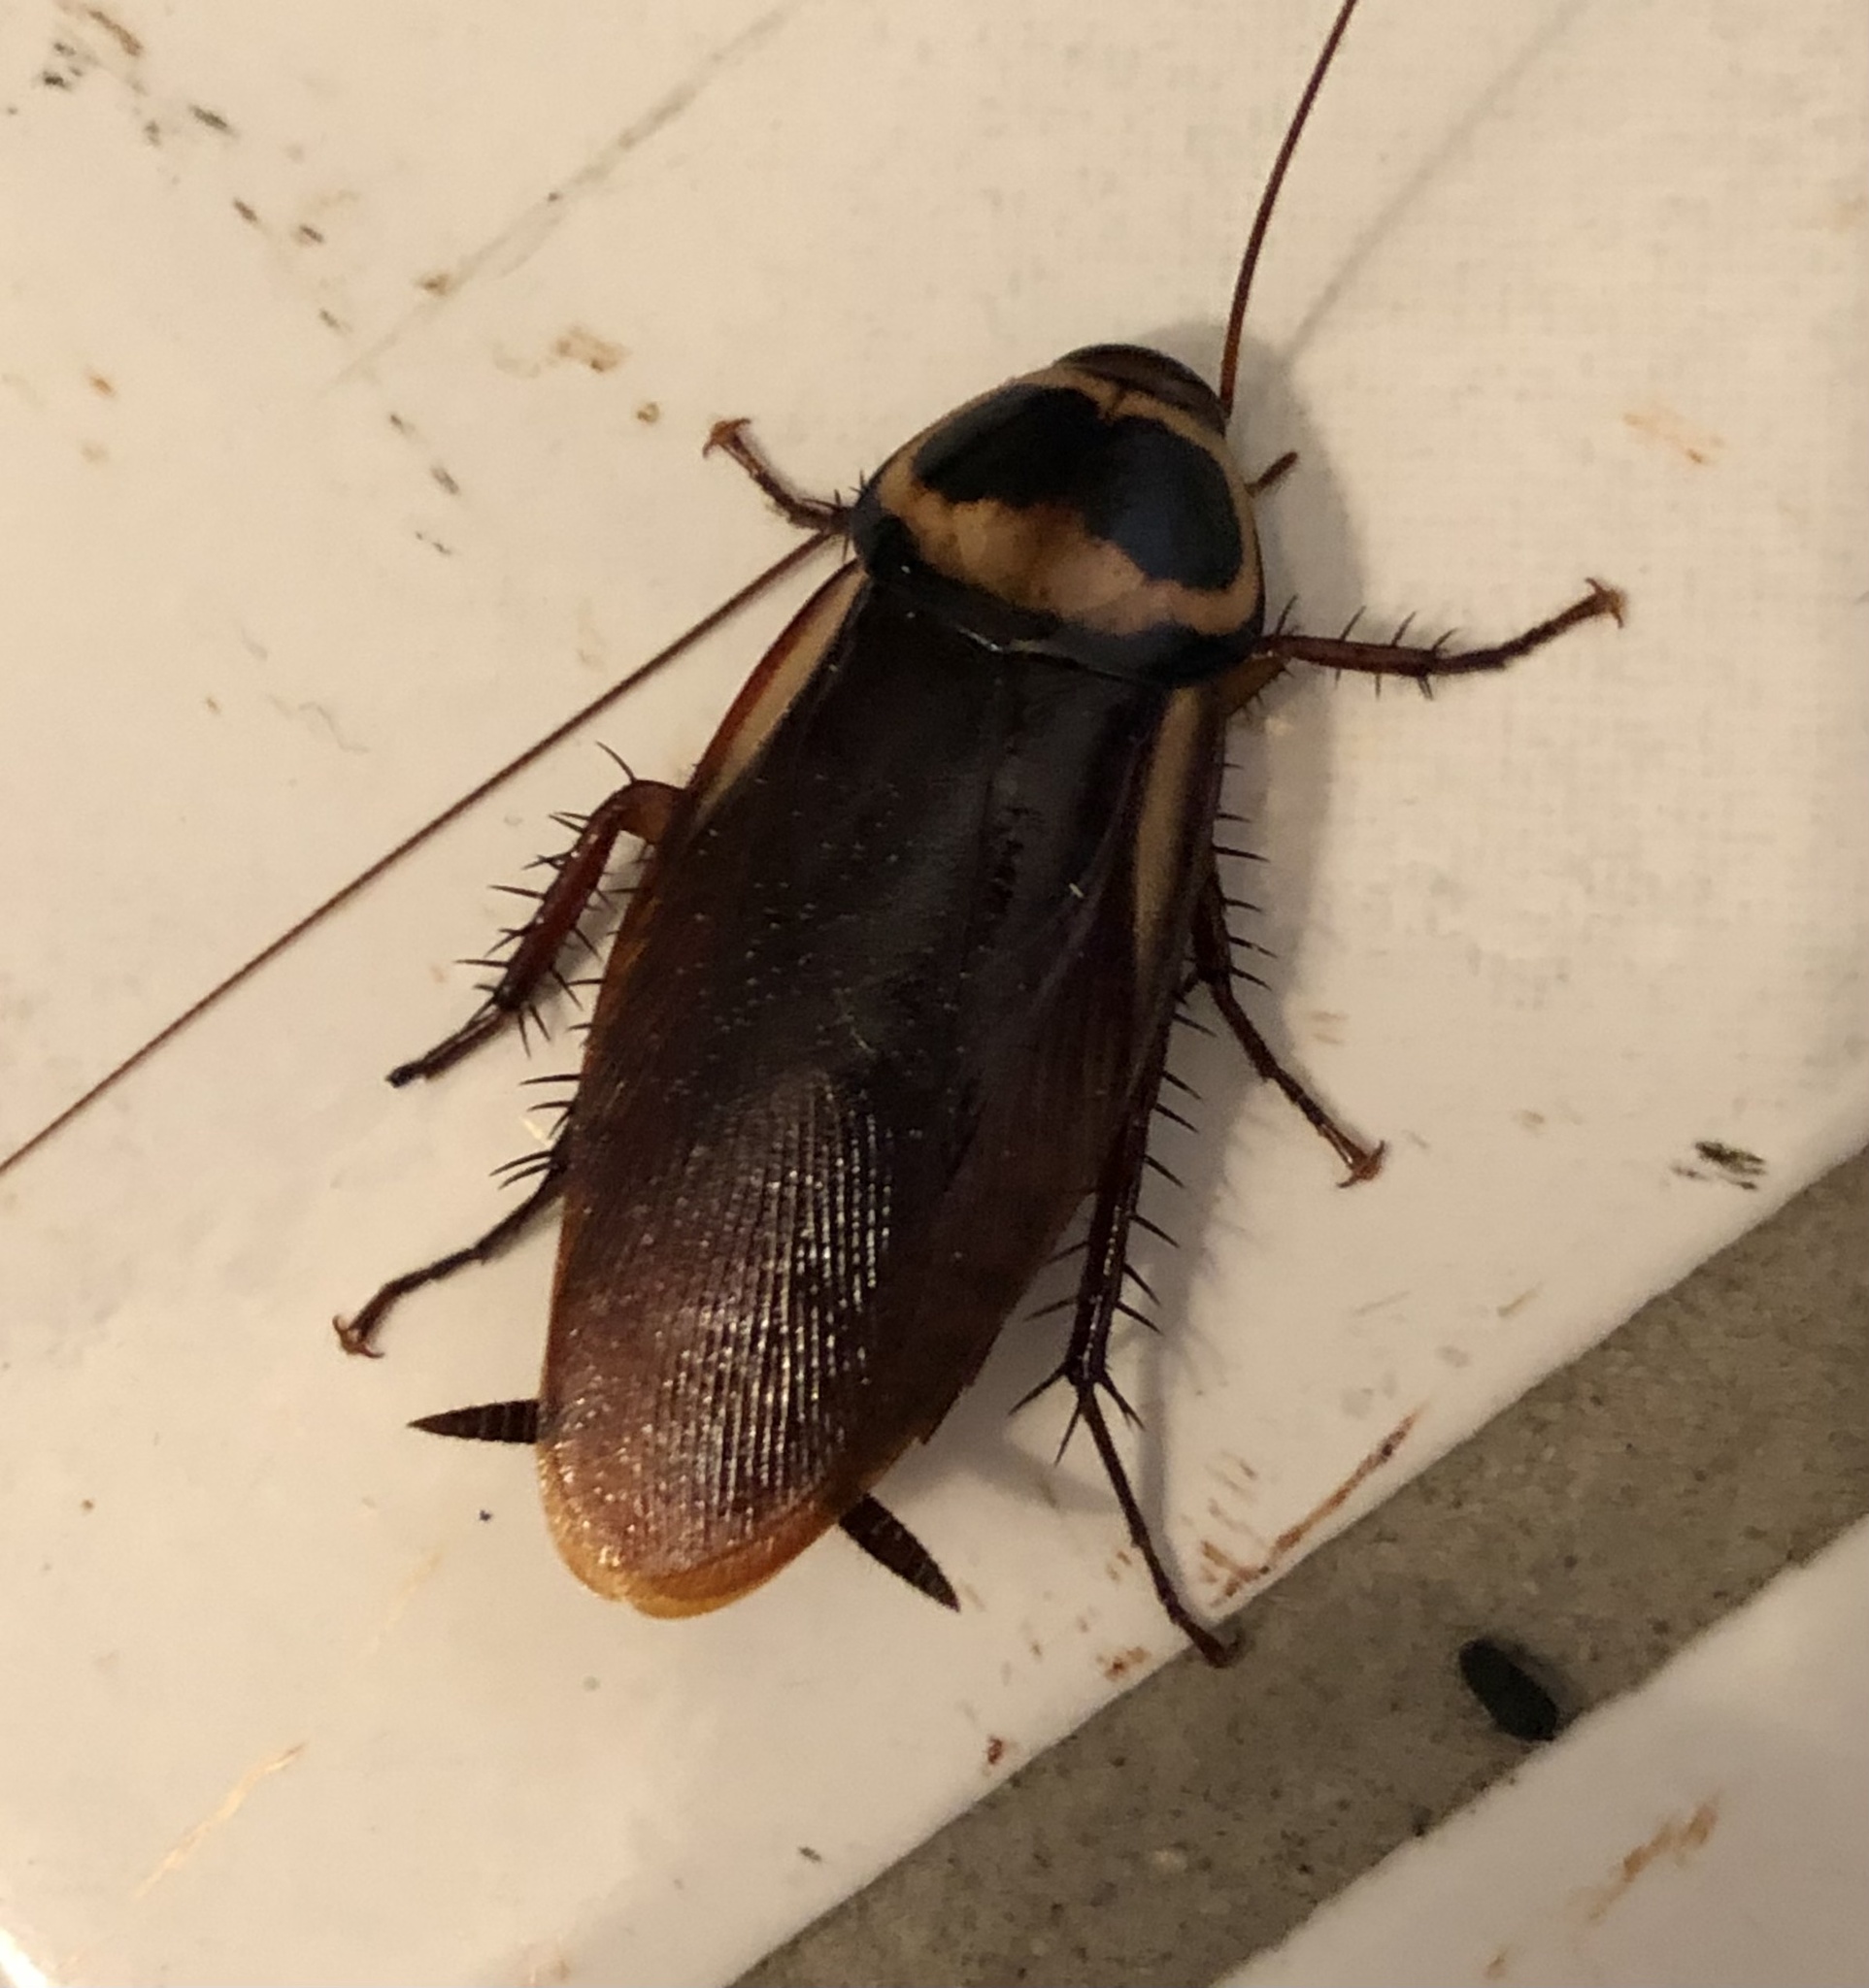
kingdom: Animalia
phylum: Arthropoda
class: Insecta
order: Blattodea
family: Blattidae
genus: Periplaneta
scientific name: Periplaneta australasiae
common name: Australian cockroach
